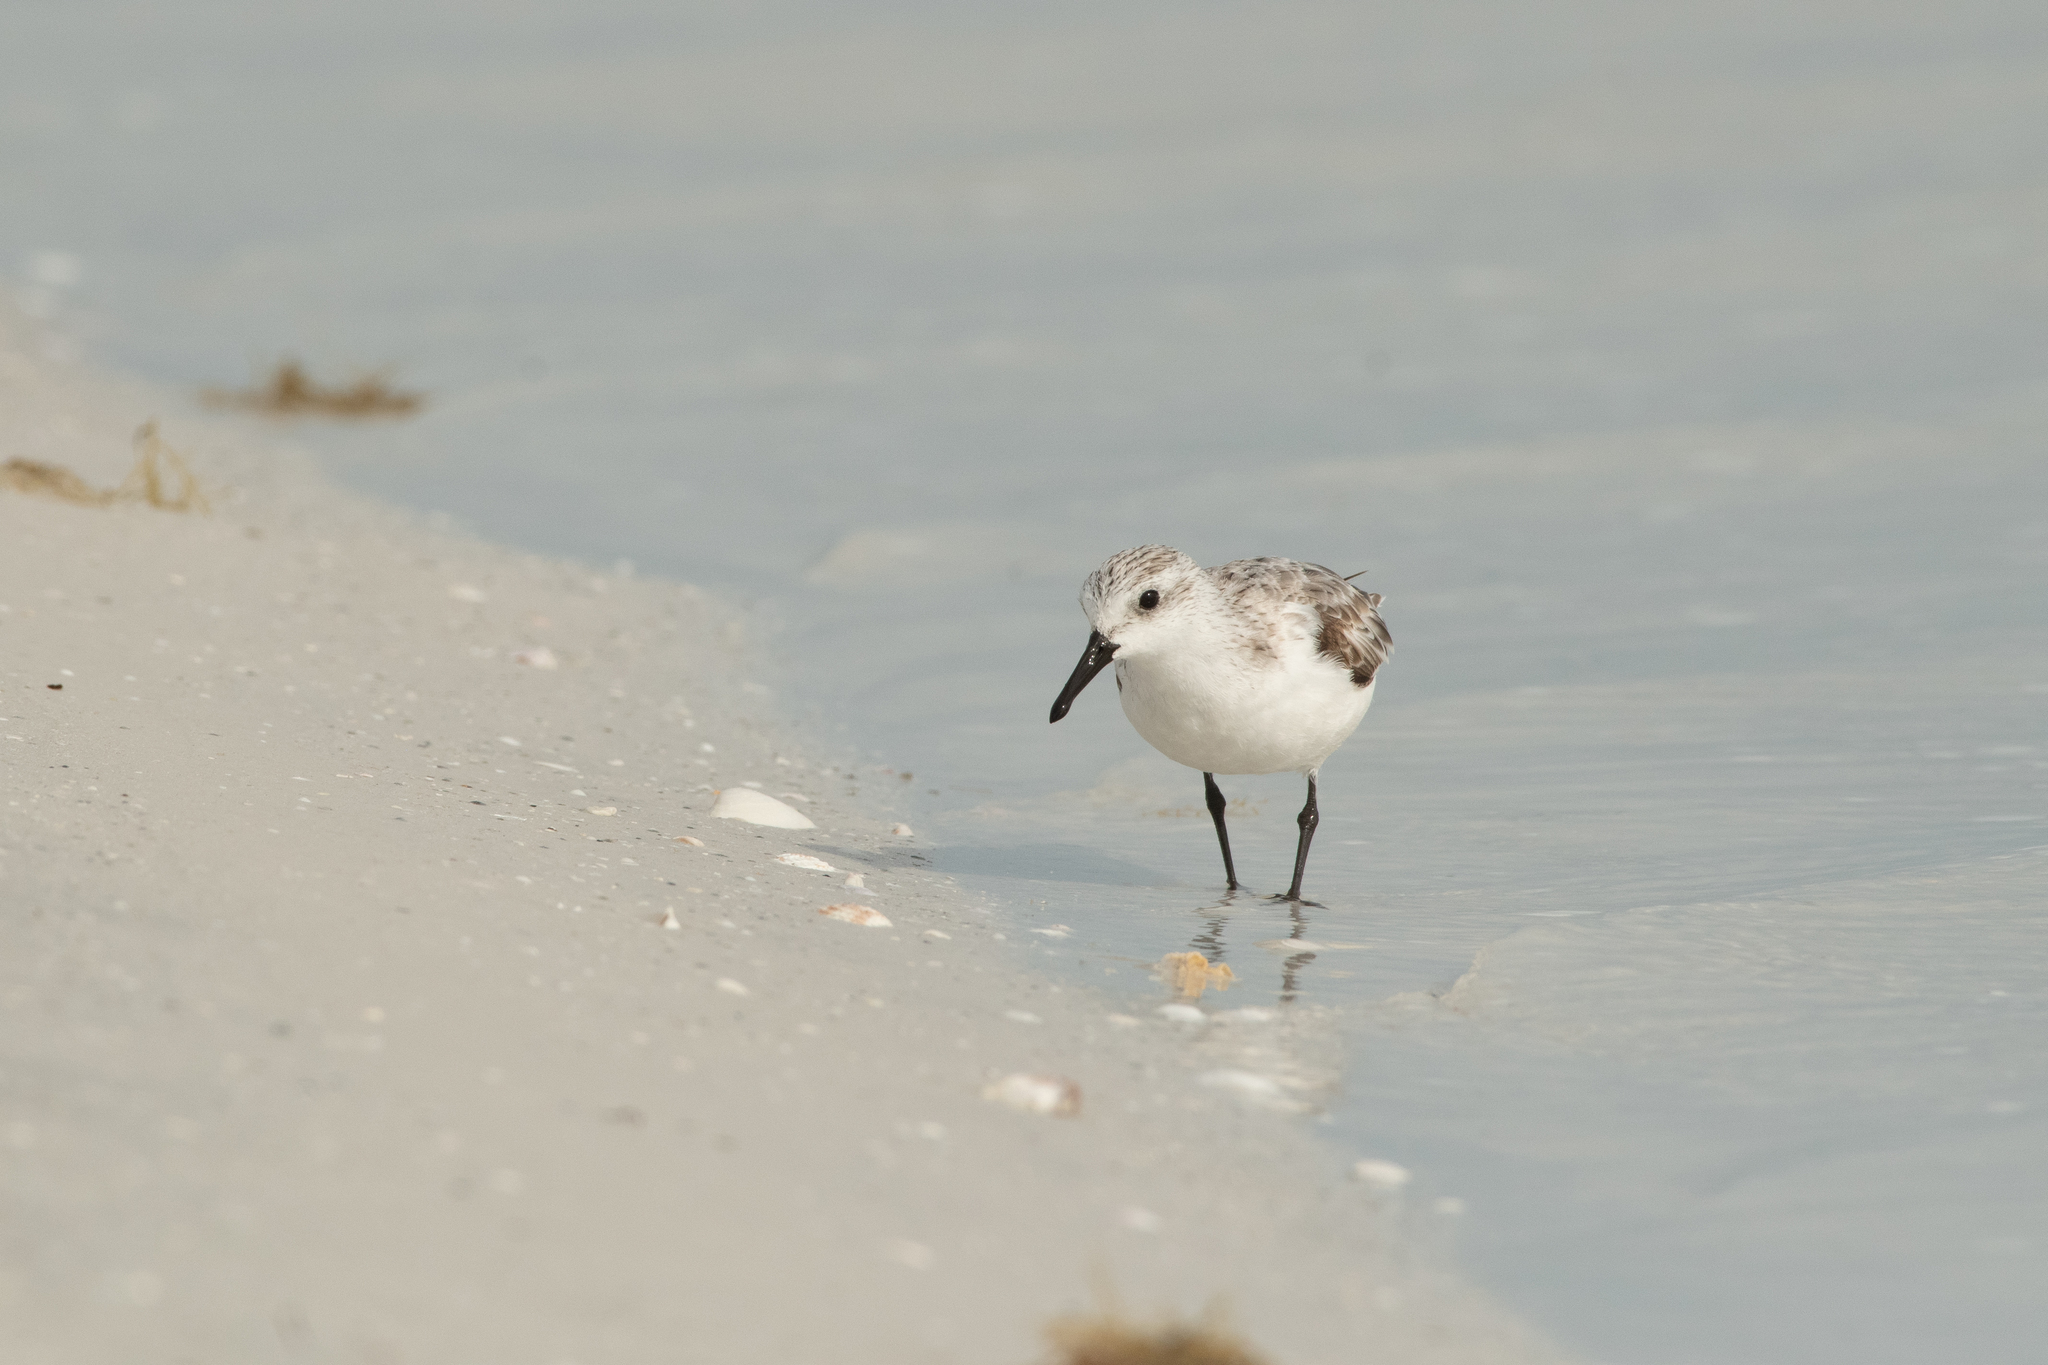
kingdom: Animalia
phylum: Chordata
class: Aves
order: Charadriiformes
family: Scolopacidae
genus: Calidris
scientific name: Calidris alba
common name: Sanderling
